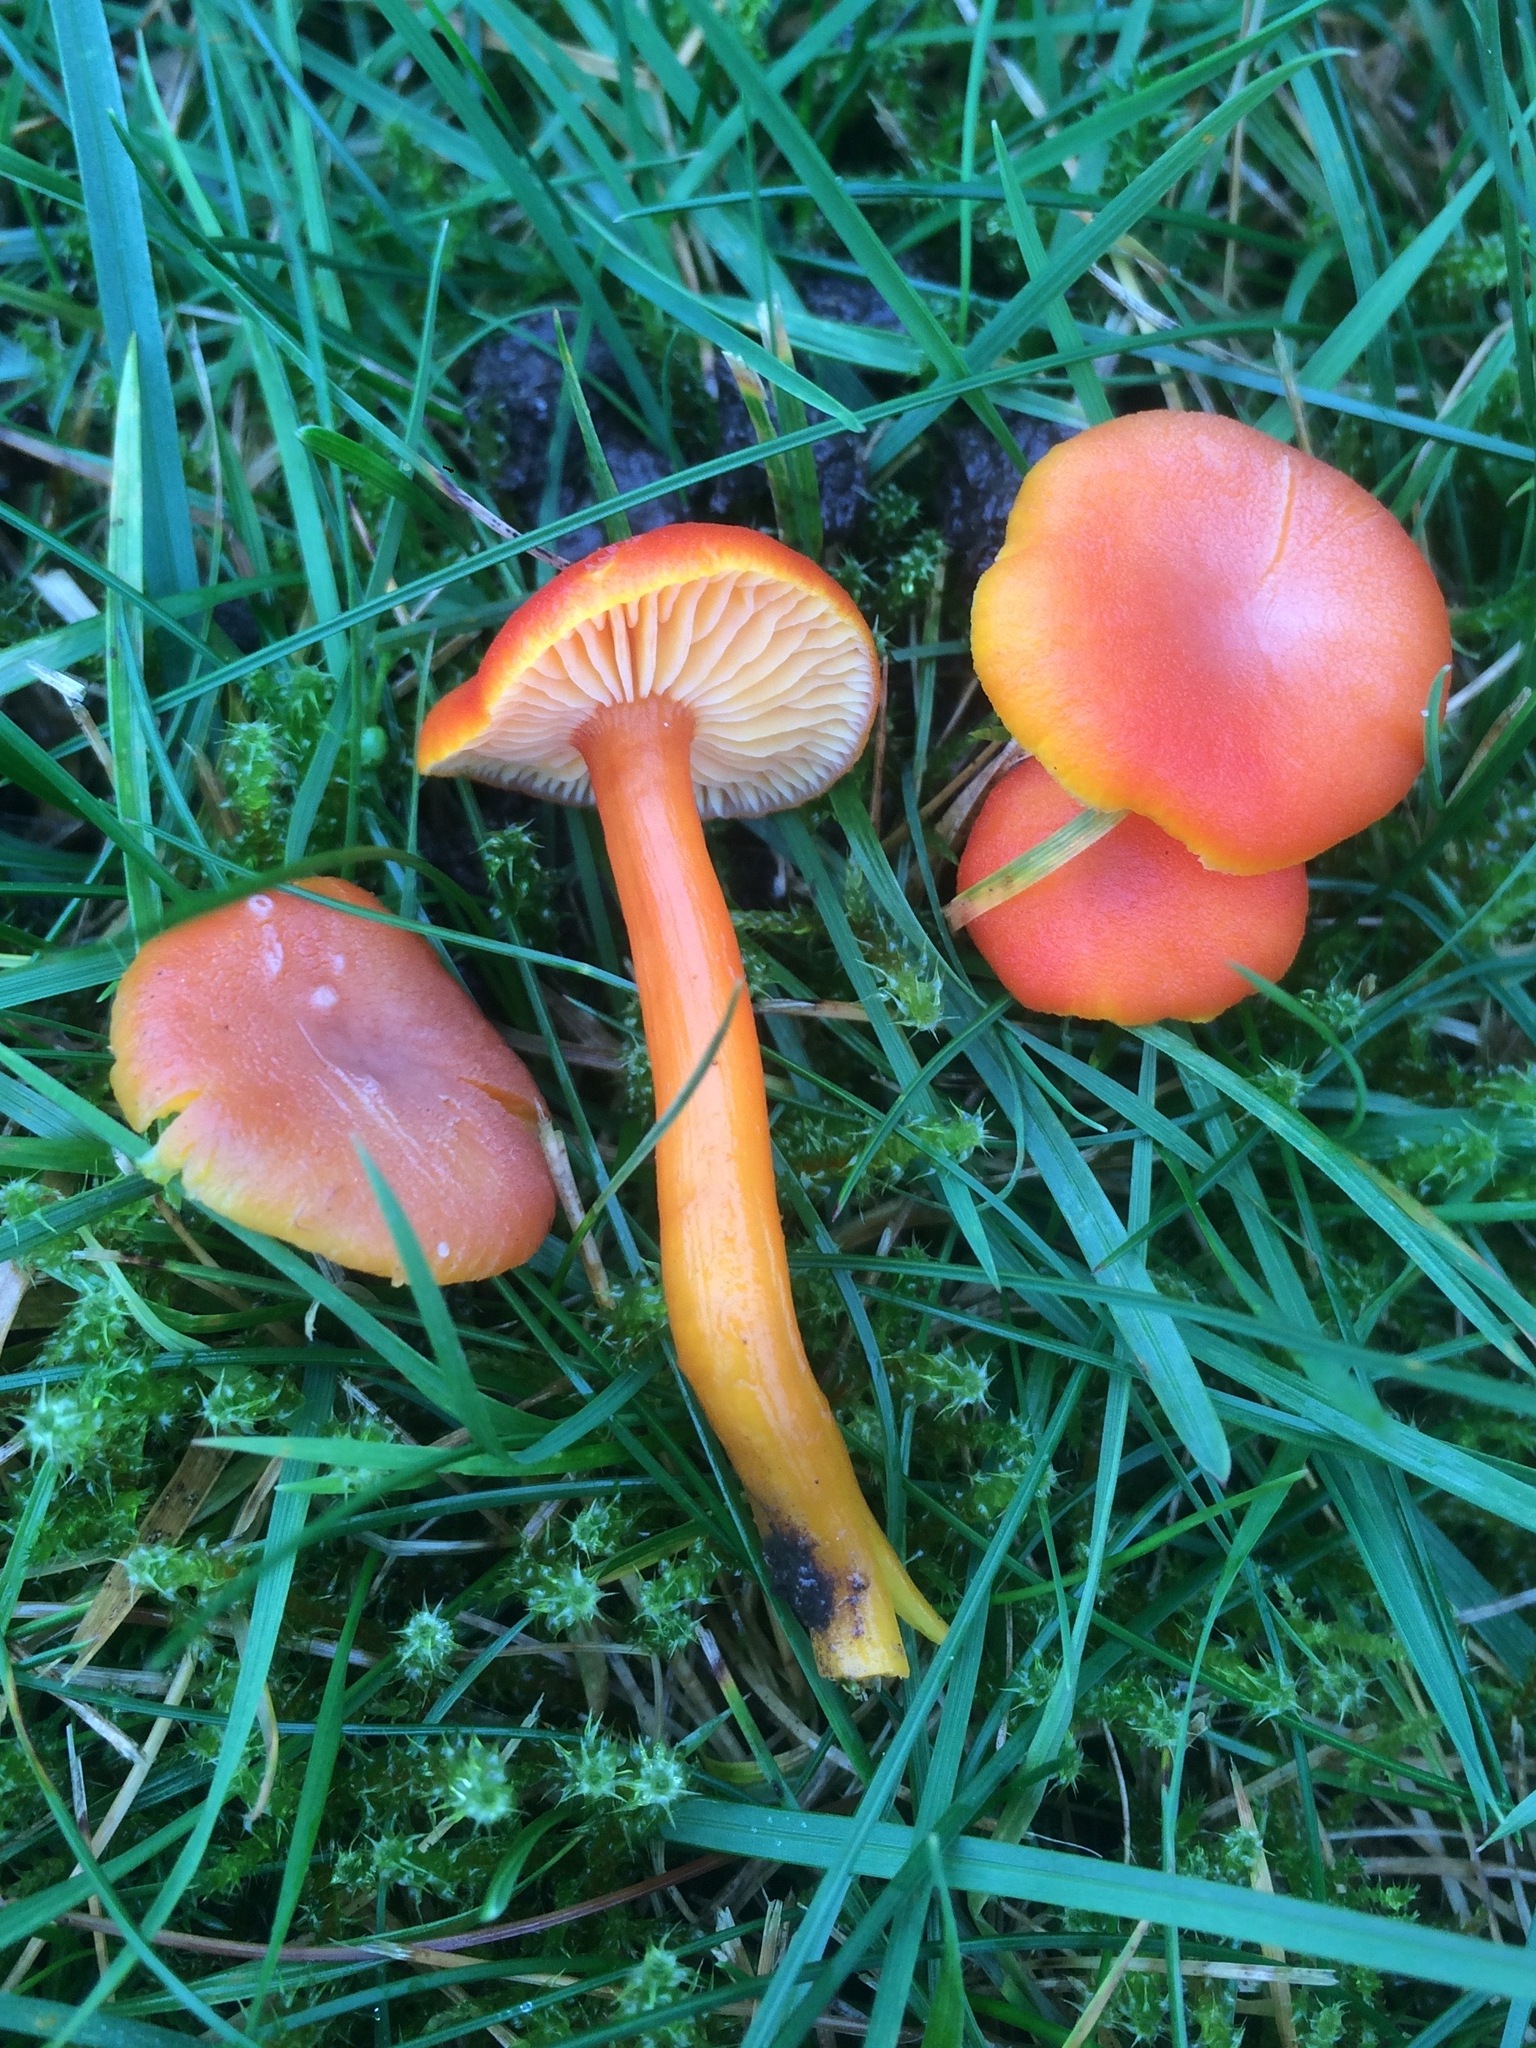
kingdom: Fungi
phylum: Basidiomycota
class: Agaricomycetes
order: Agaricales
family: Hygrophoraceae
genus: Hygrocybe
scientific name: Hygrocybe reidii
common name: Honey waxcap
